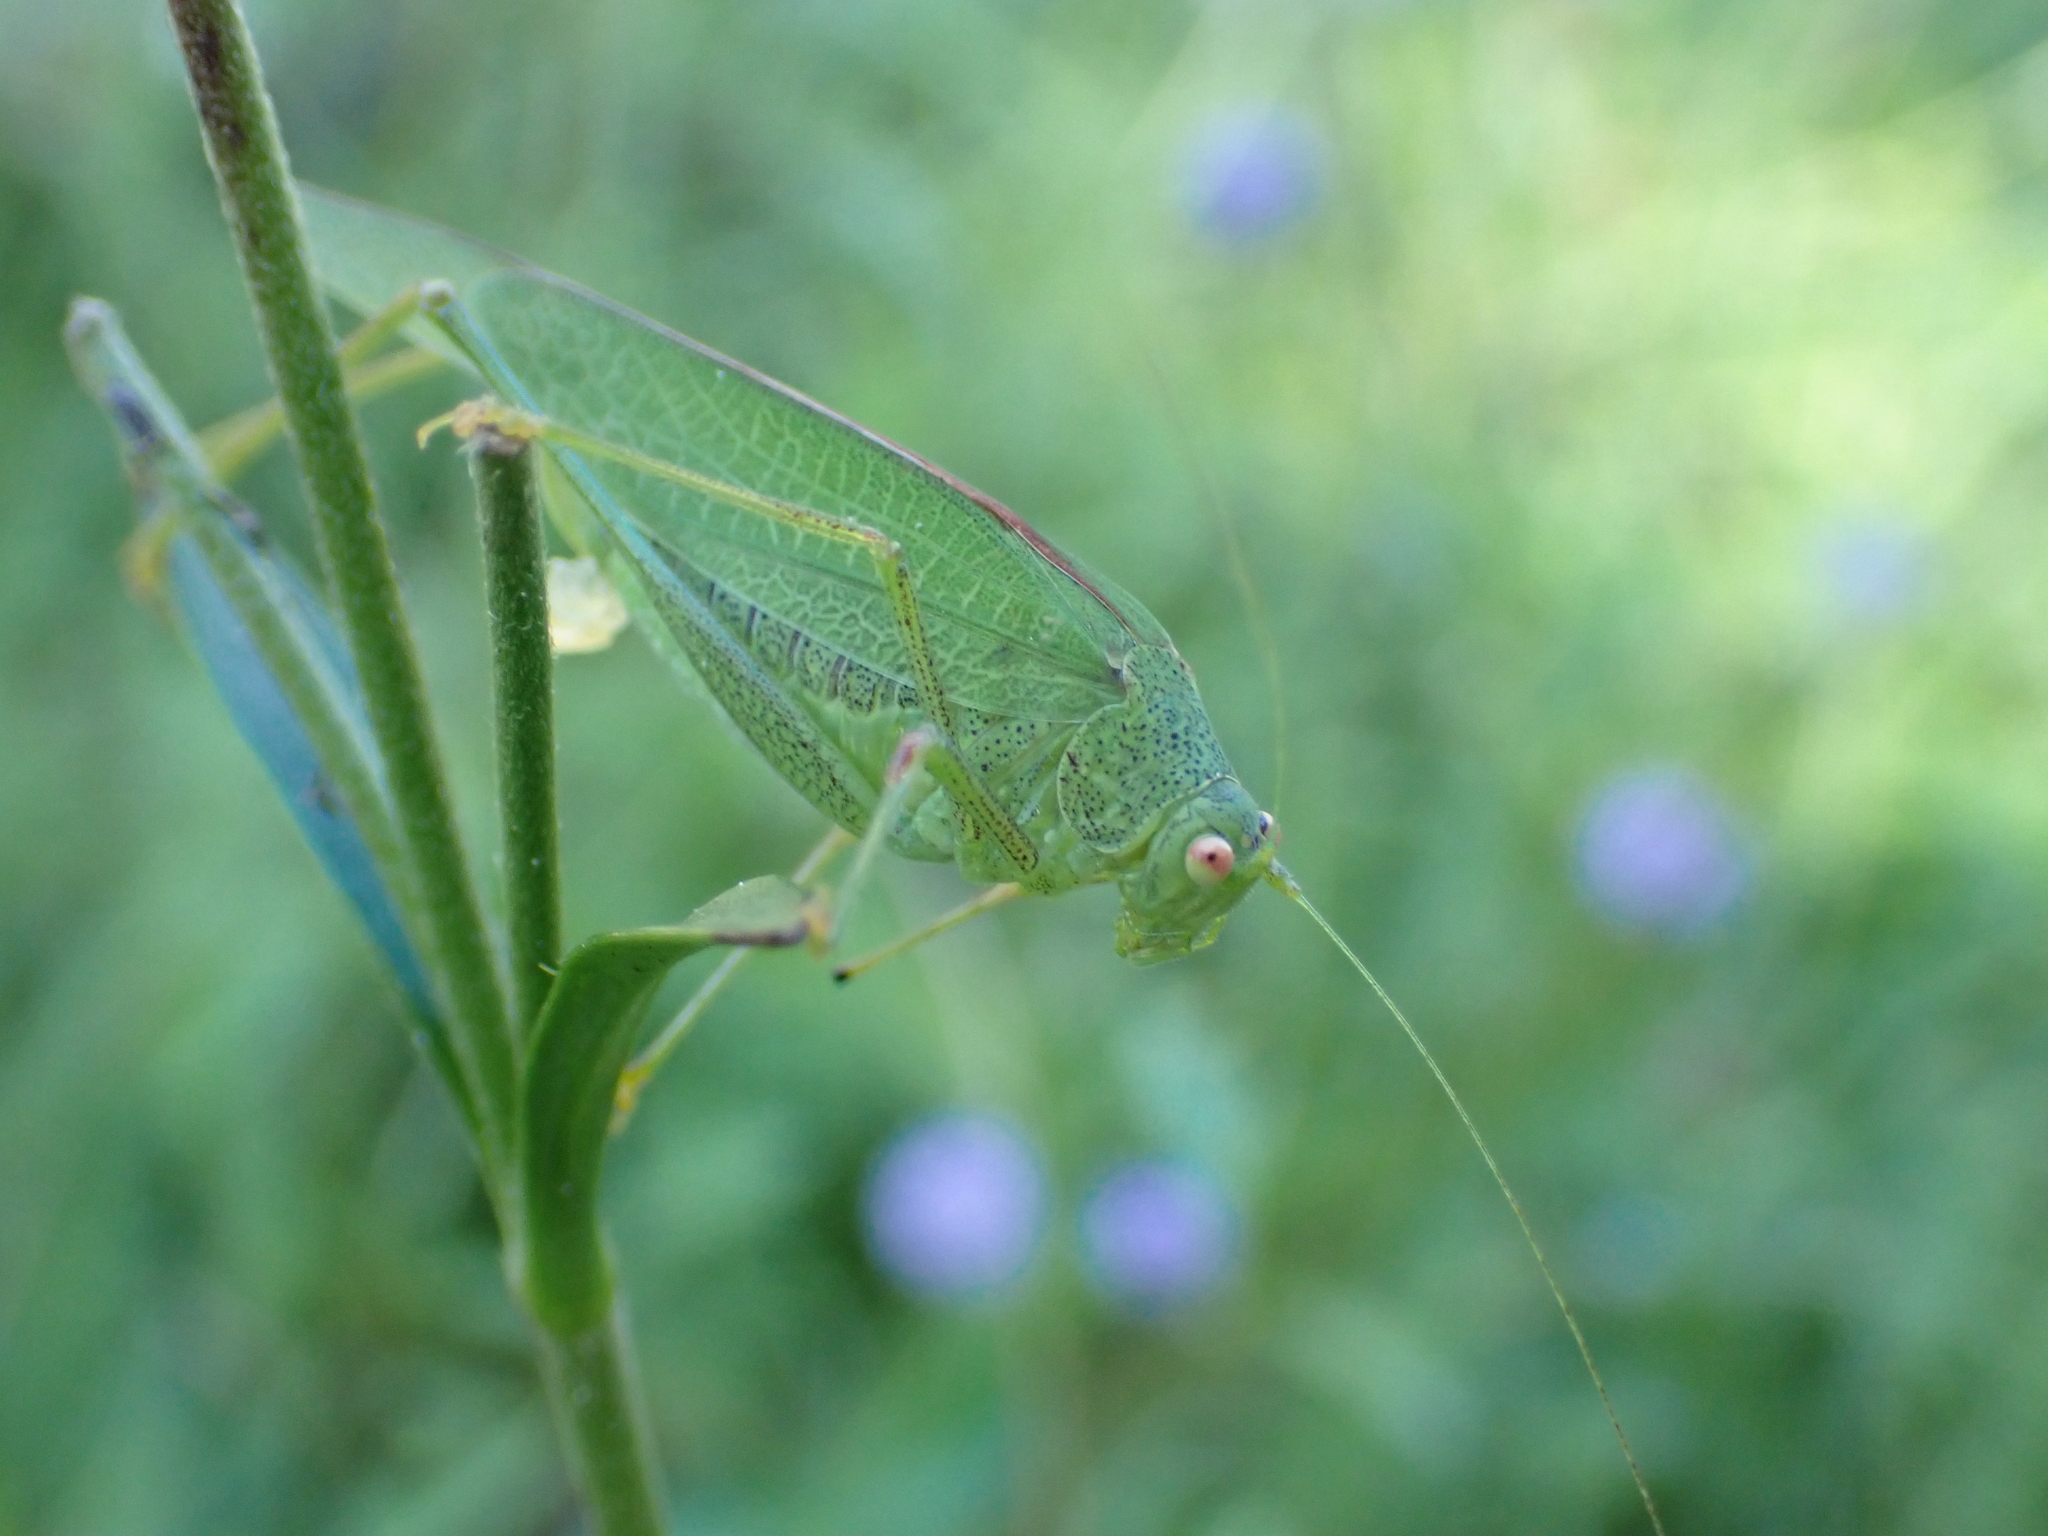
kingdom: Animalia
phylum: Arthropoda
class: Insecta
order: Orthoptera
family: Tettigoniidae
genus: Phaneroptera
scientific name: Phaneroptera nana
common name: Southern sickle bush-cricket
